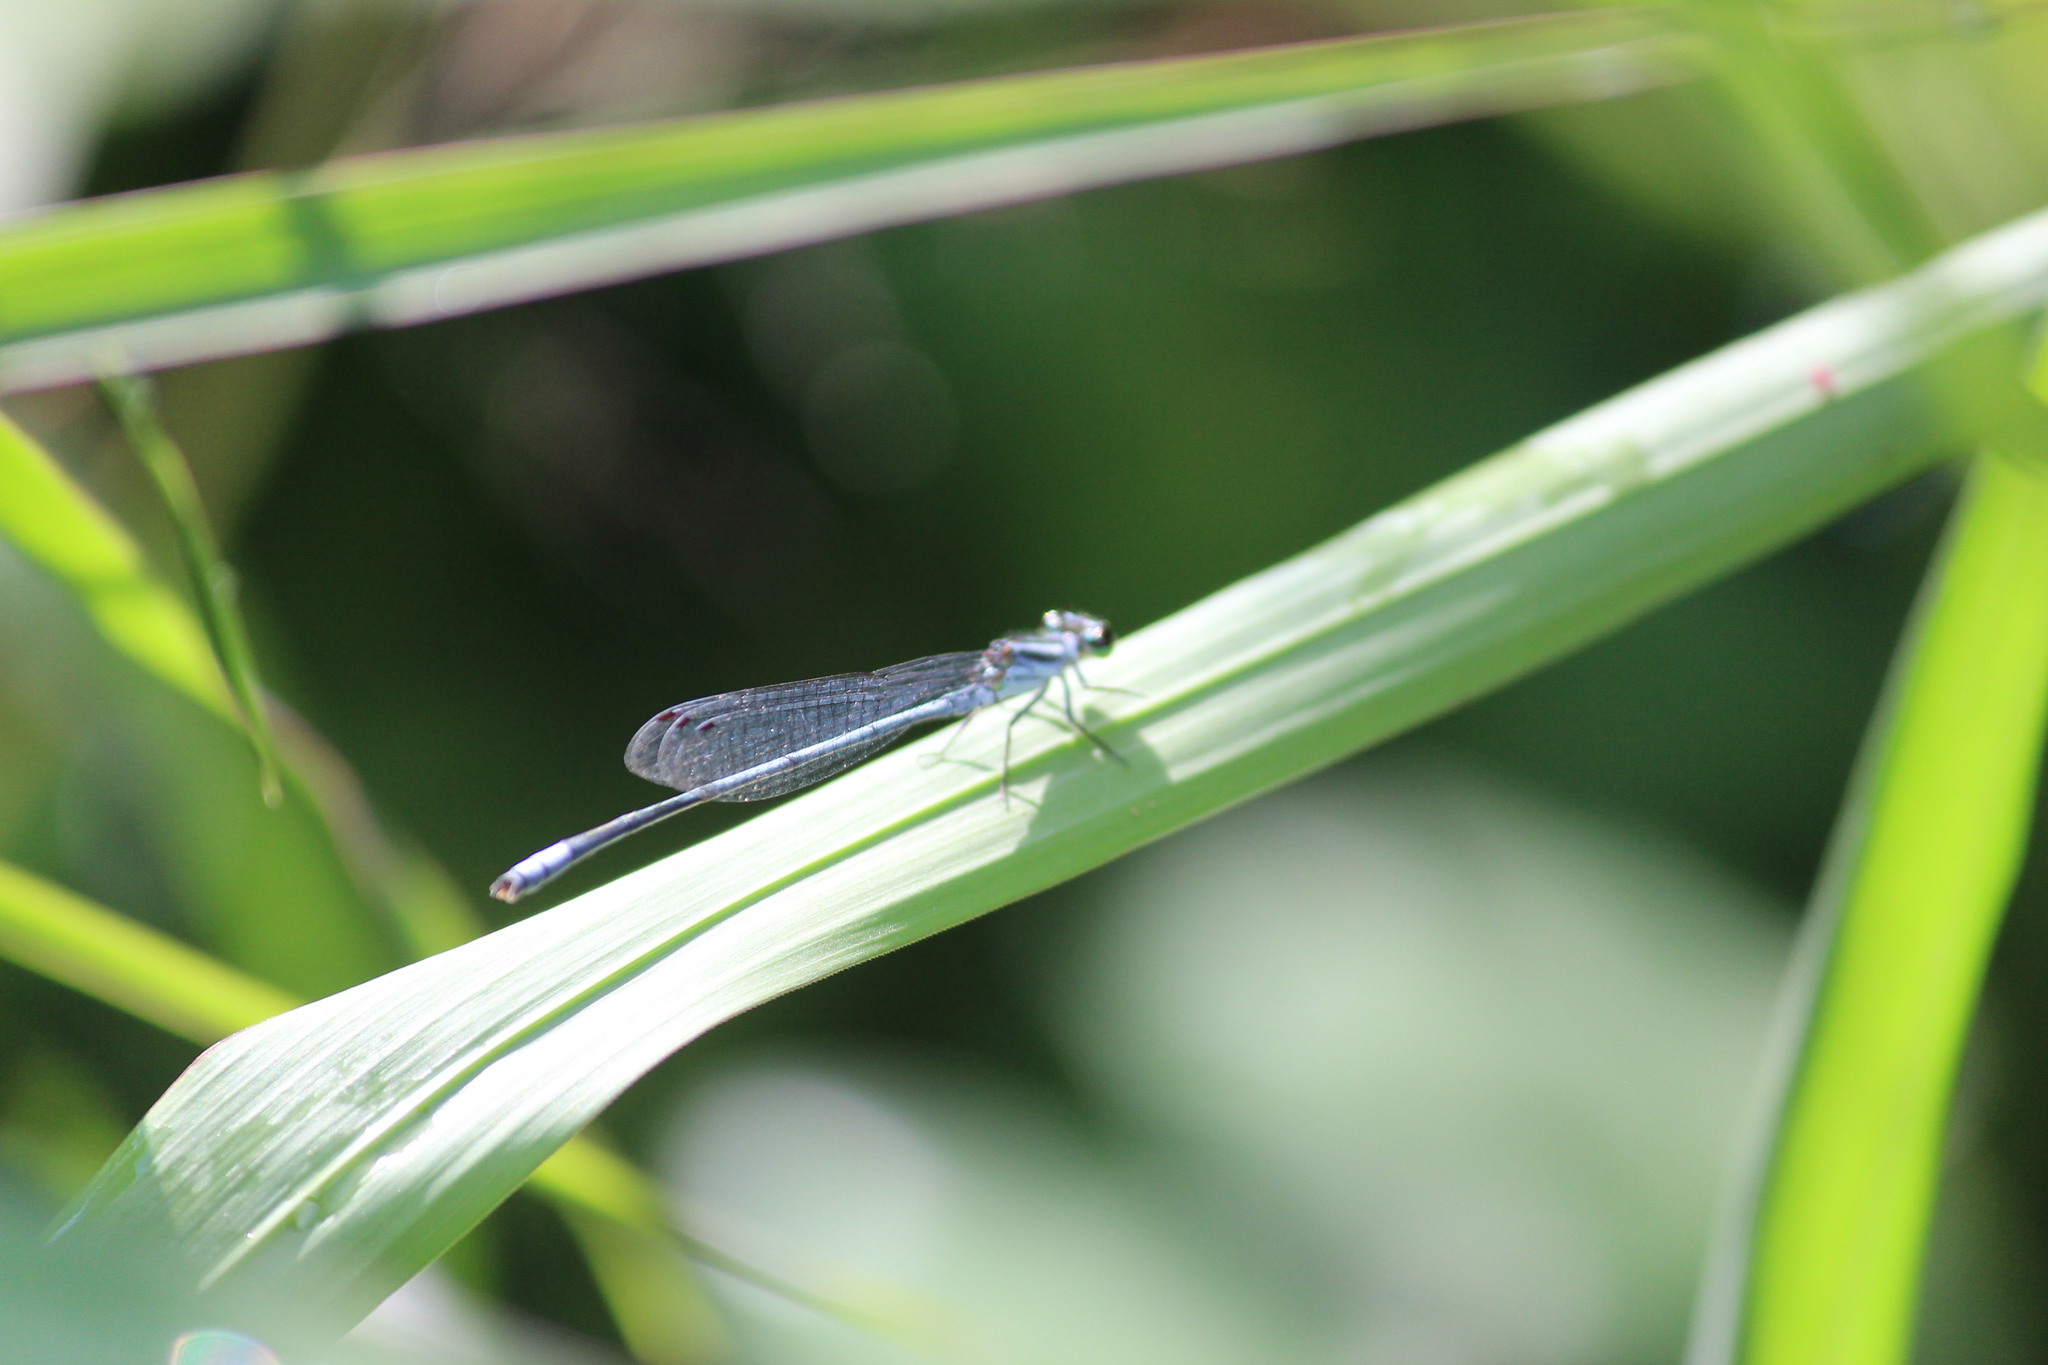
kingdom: Animalia
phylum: Arthropoda
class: Insecta
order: Odonata
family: Coenagrionidae
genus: Pseudagrion
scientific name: Pseudagrion kersteni
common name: Powder-faced sprite
